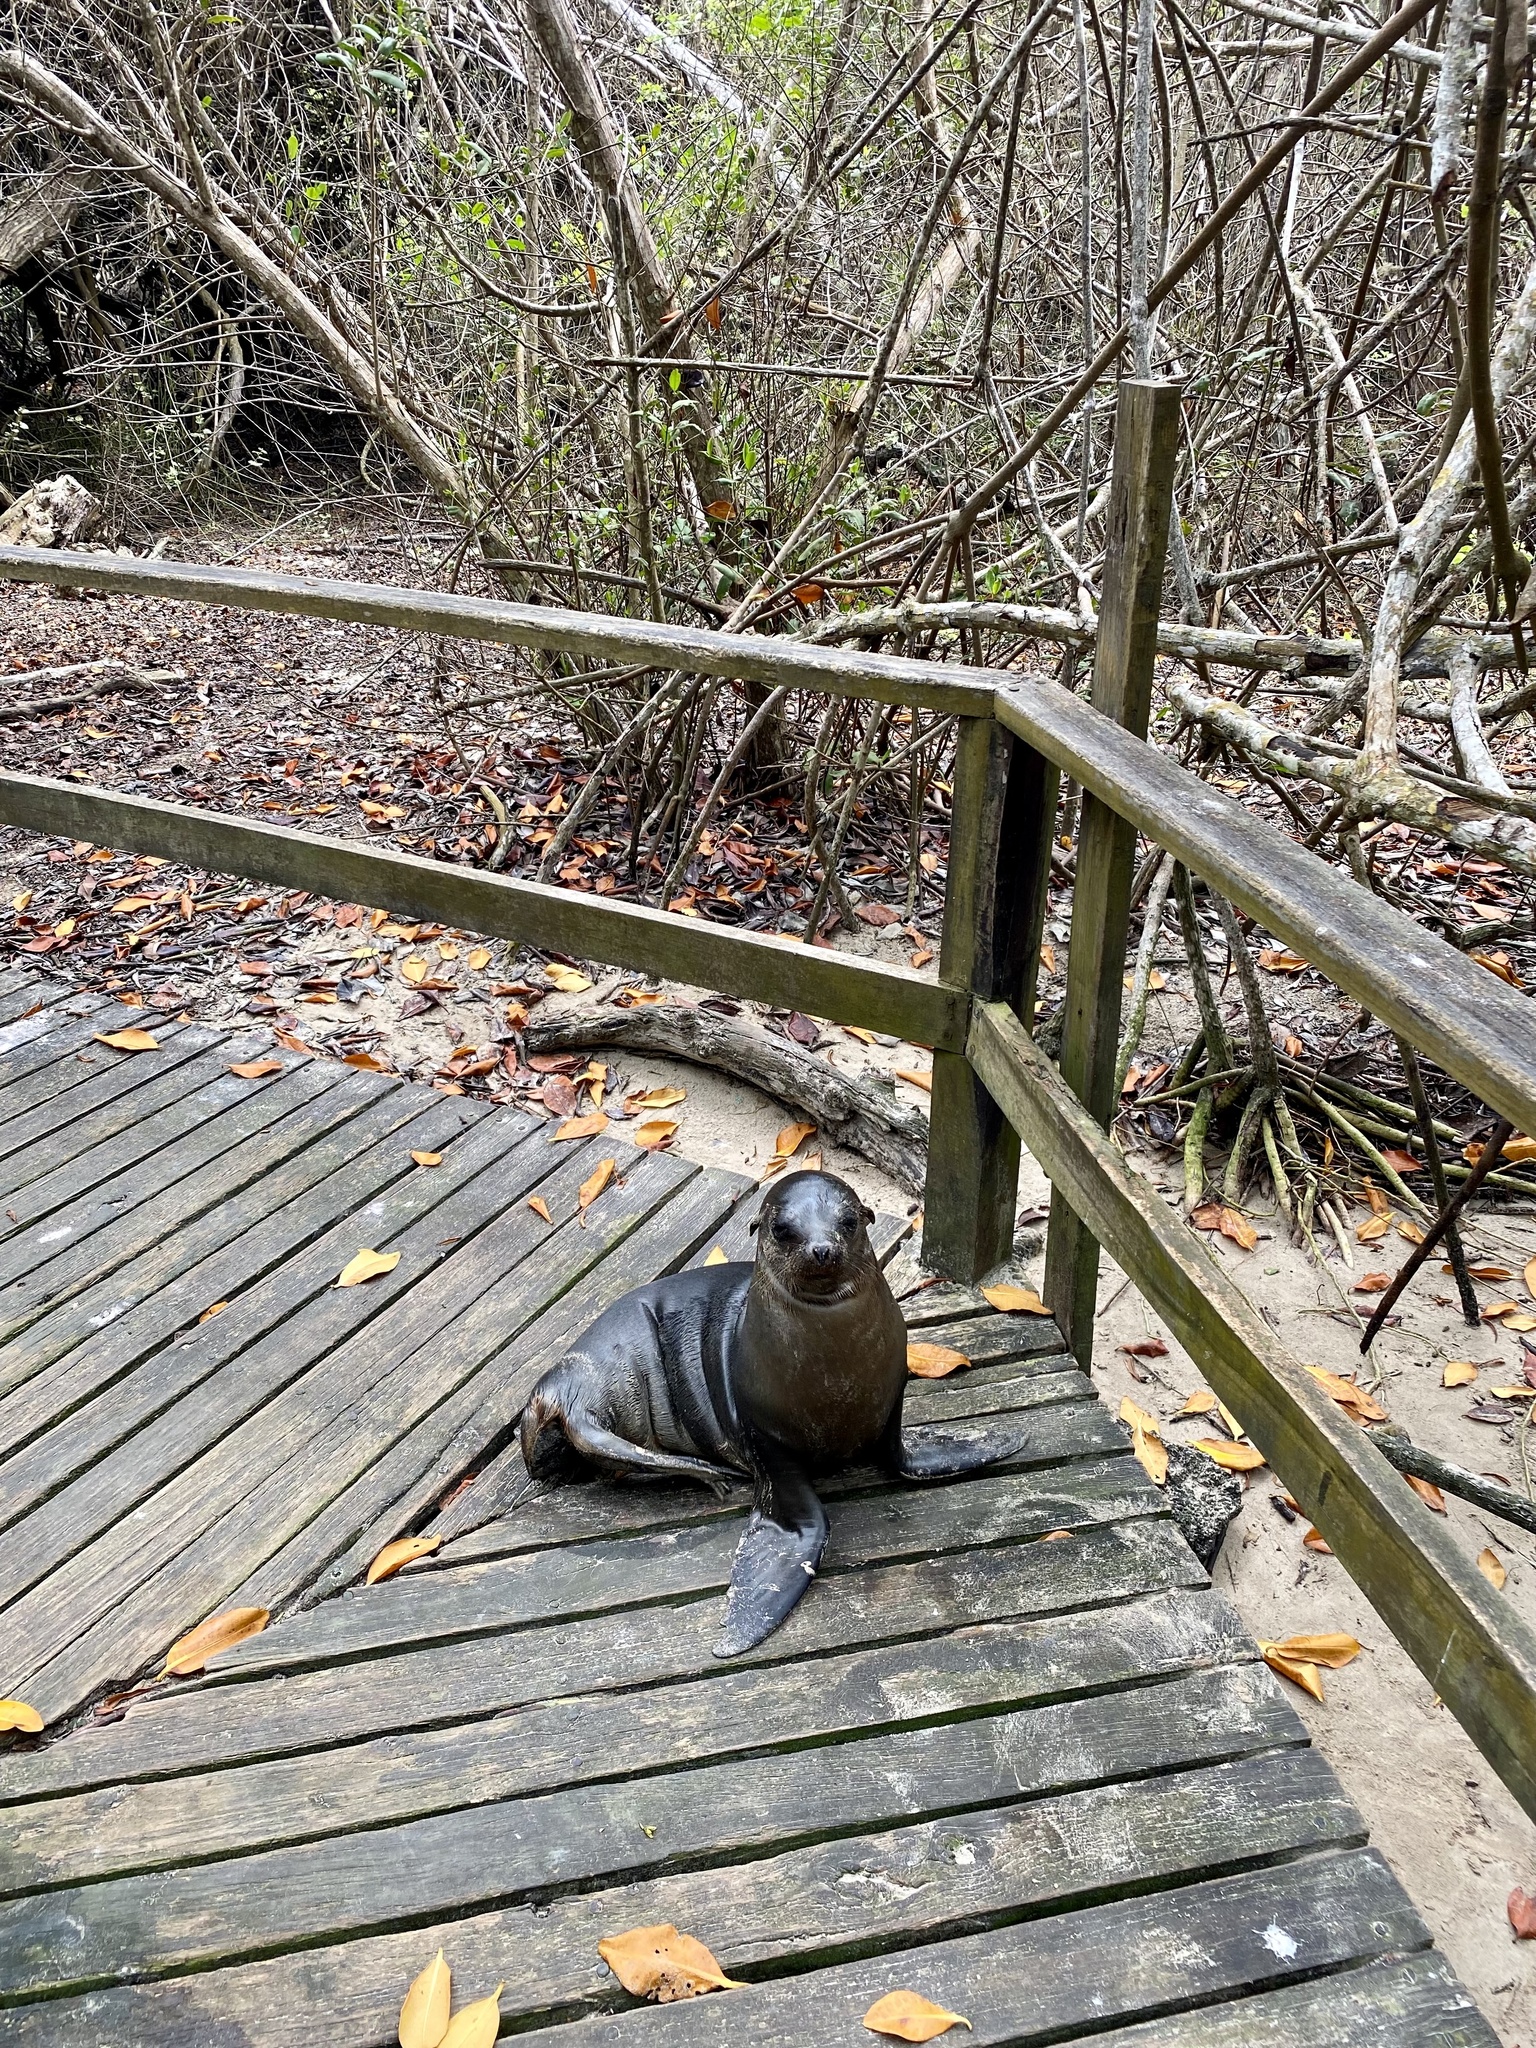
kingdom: Animalia
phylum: Chordata
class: Mammalia
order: Carnivora
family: Otariidae
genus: Zalophus
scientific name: Zalophus wollebaeki
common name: Galapagos sea lion
